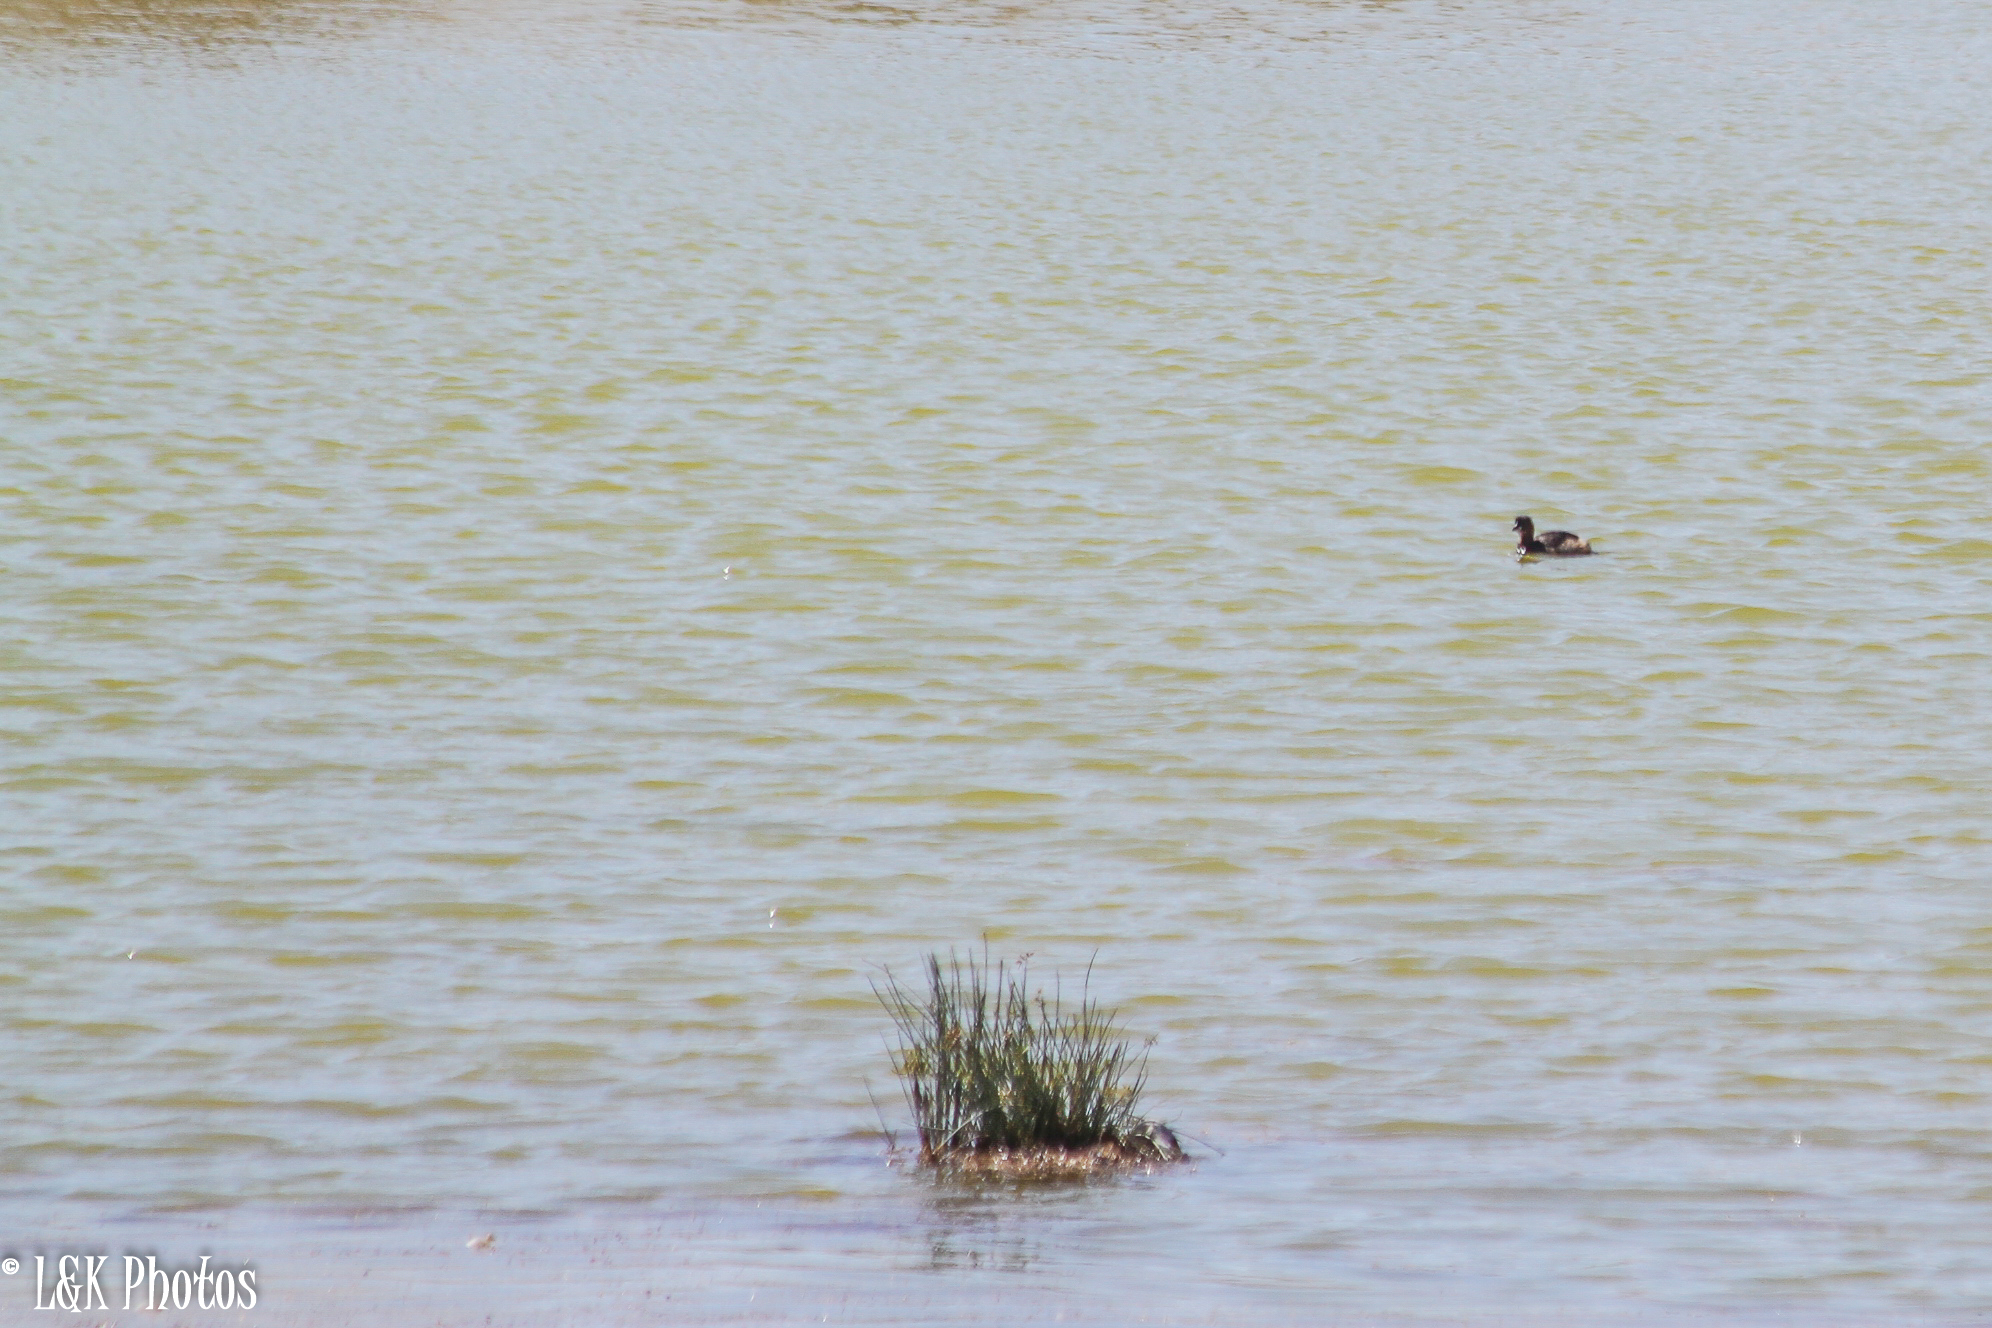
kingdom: Animalia
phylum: Chordata
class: Aves
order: Podicipediformes
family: Podicipedidae
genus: Tachybaptus
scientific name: Tachybaptus ruficollis
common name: Little grebe
